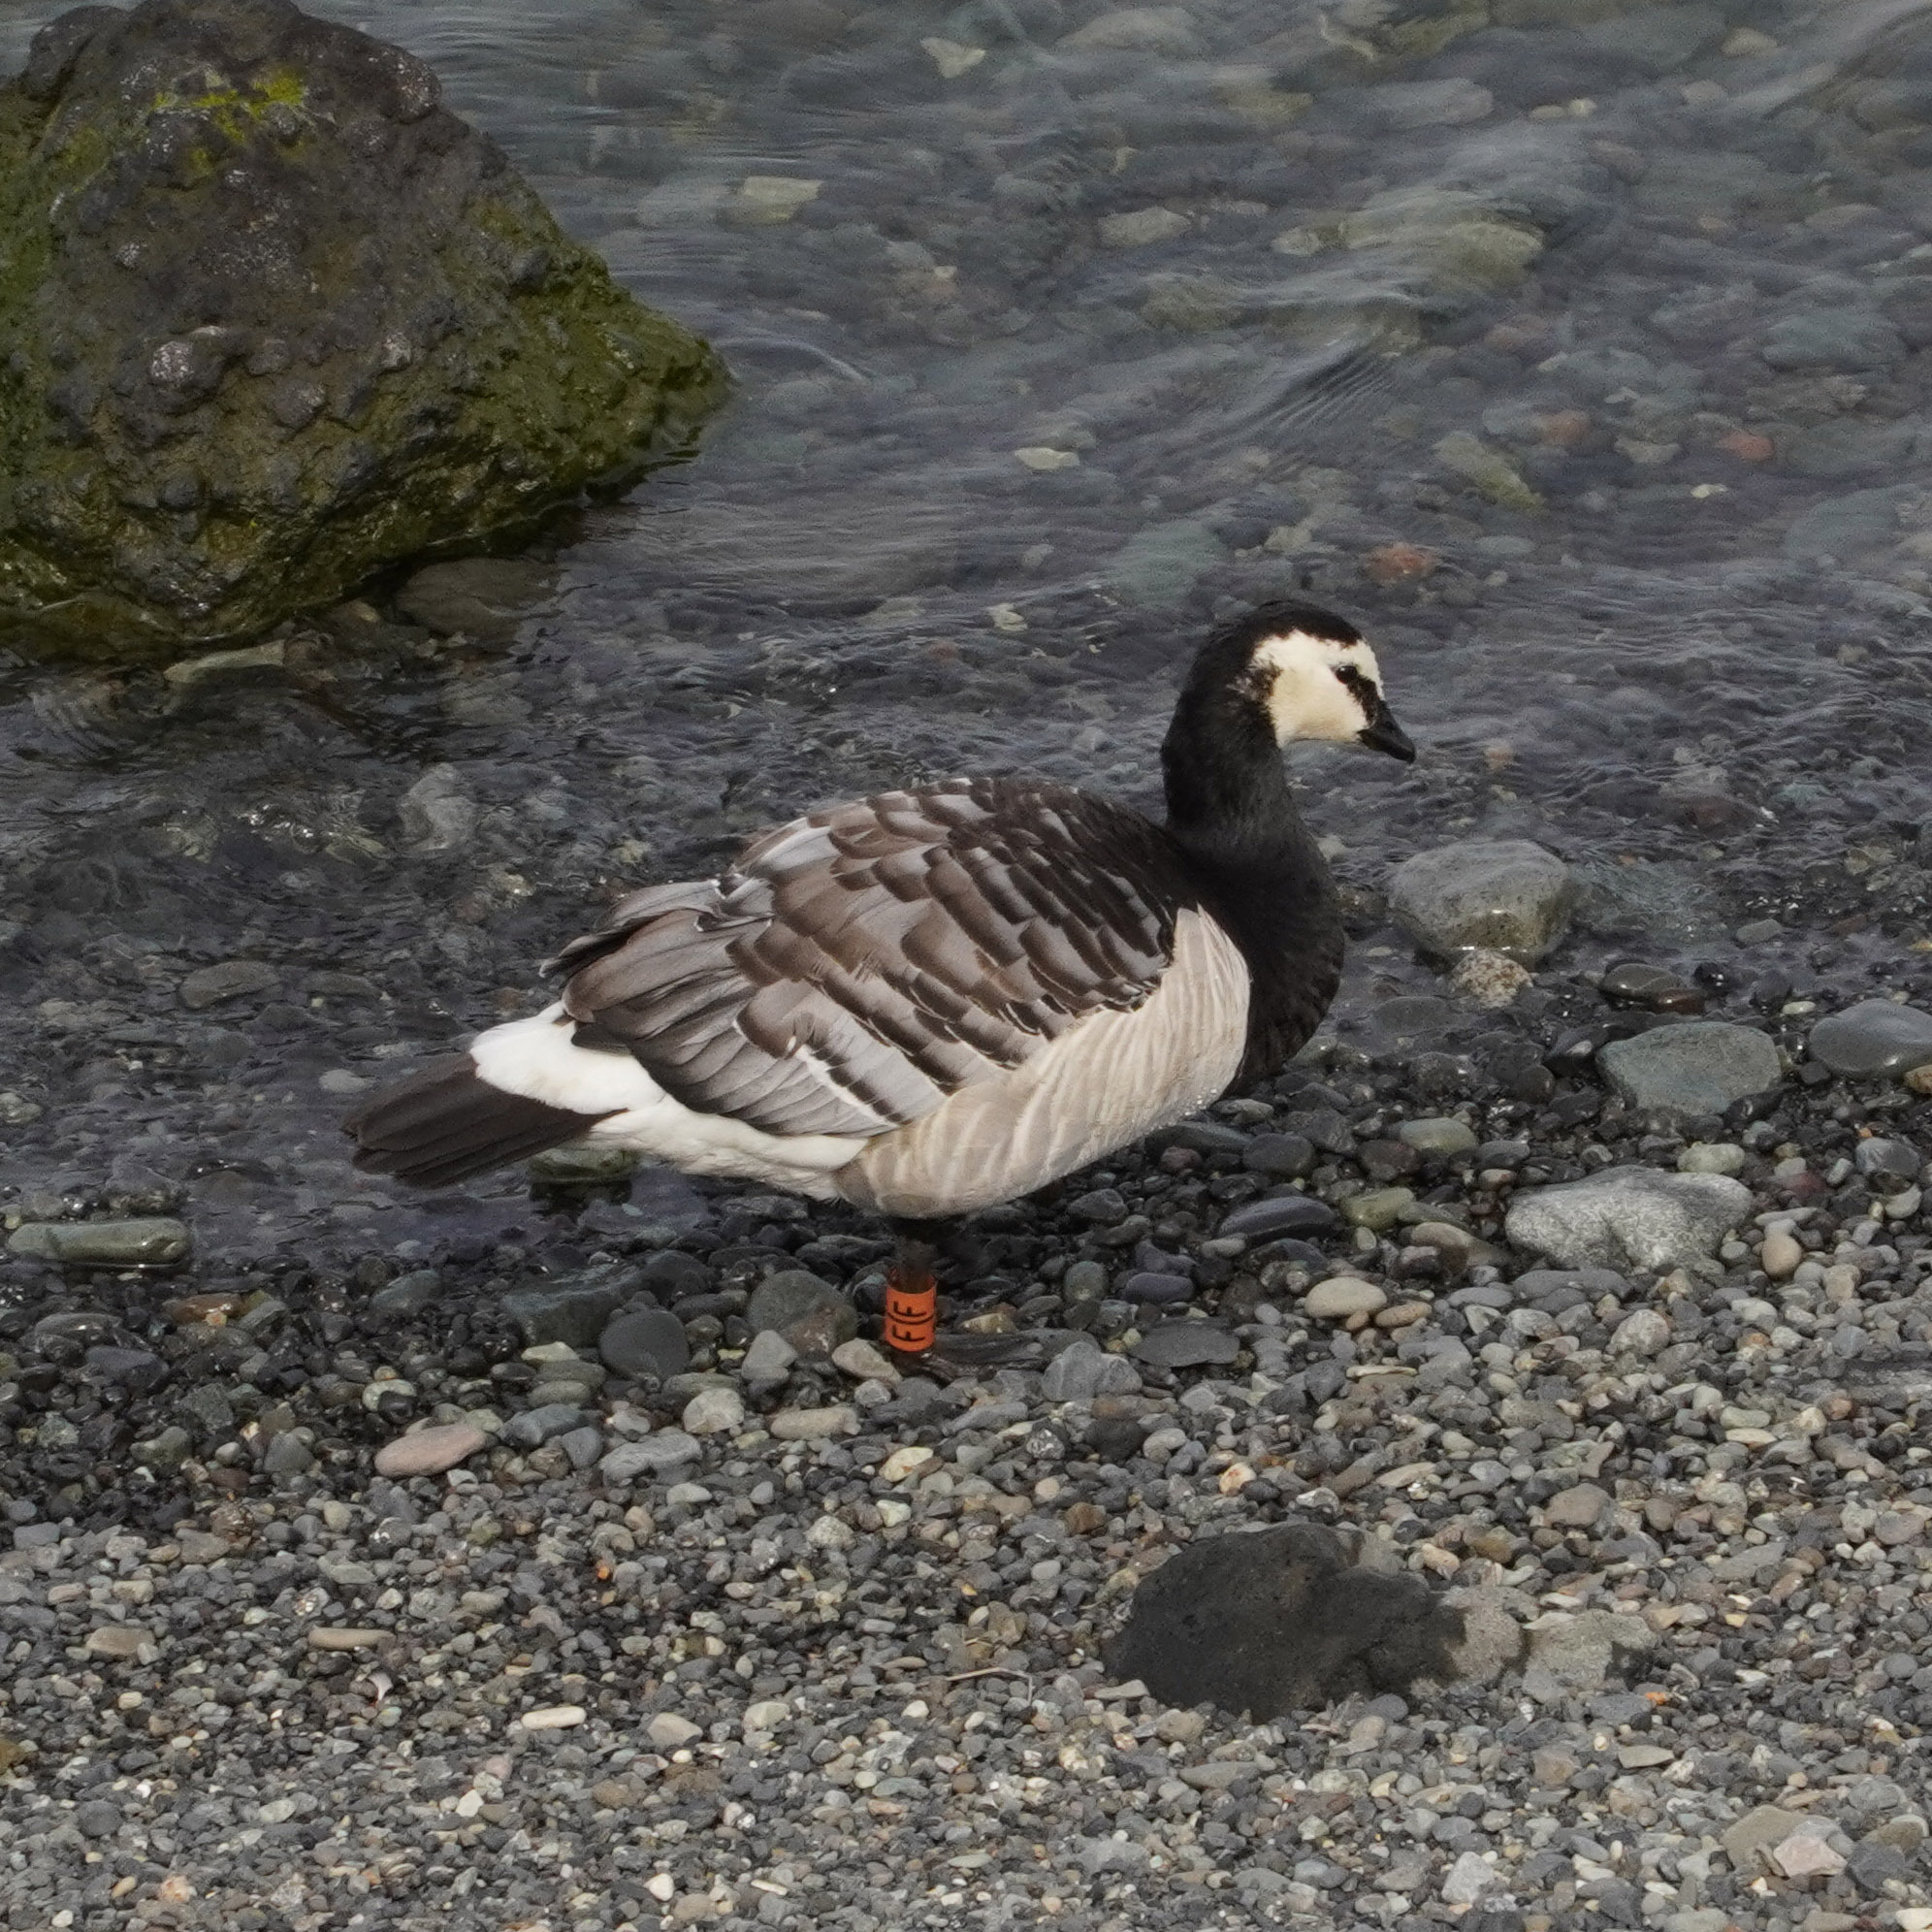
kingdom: Animalia
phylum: Chordata
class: Aves
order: Anseriformes
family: Anatidae
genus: Branta
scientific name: Branta leucopsis
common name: Barnacle goose
